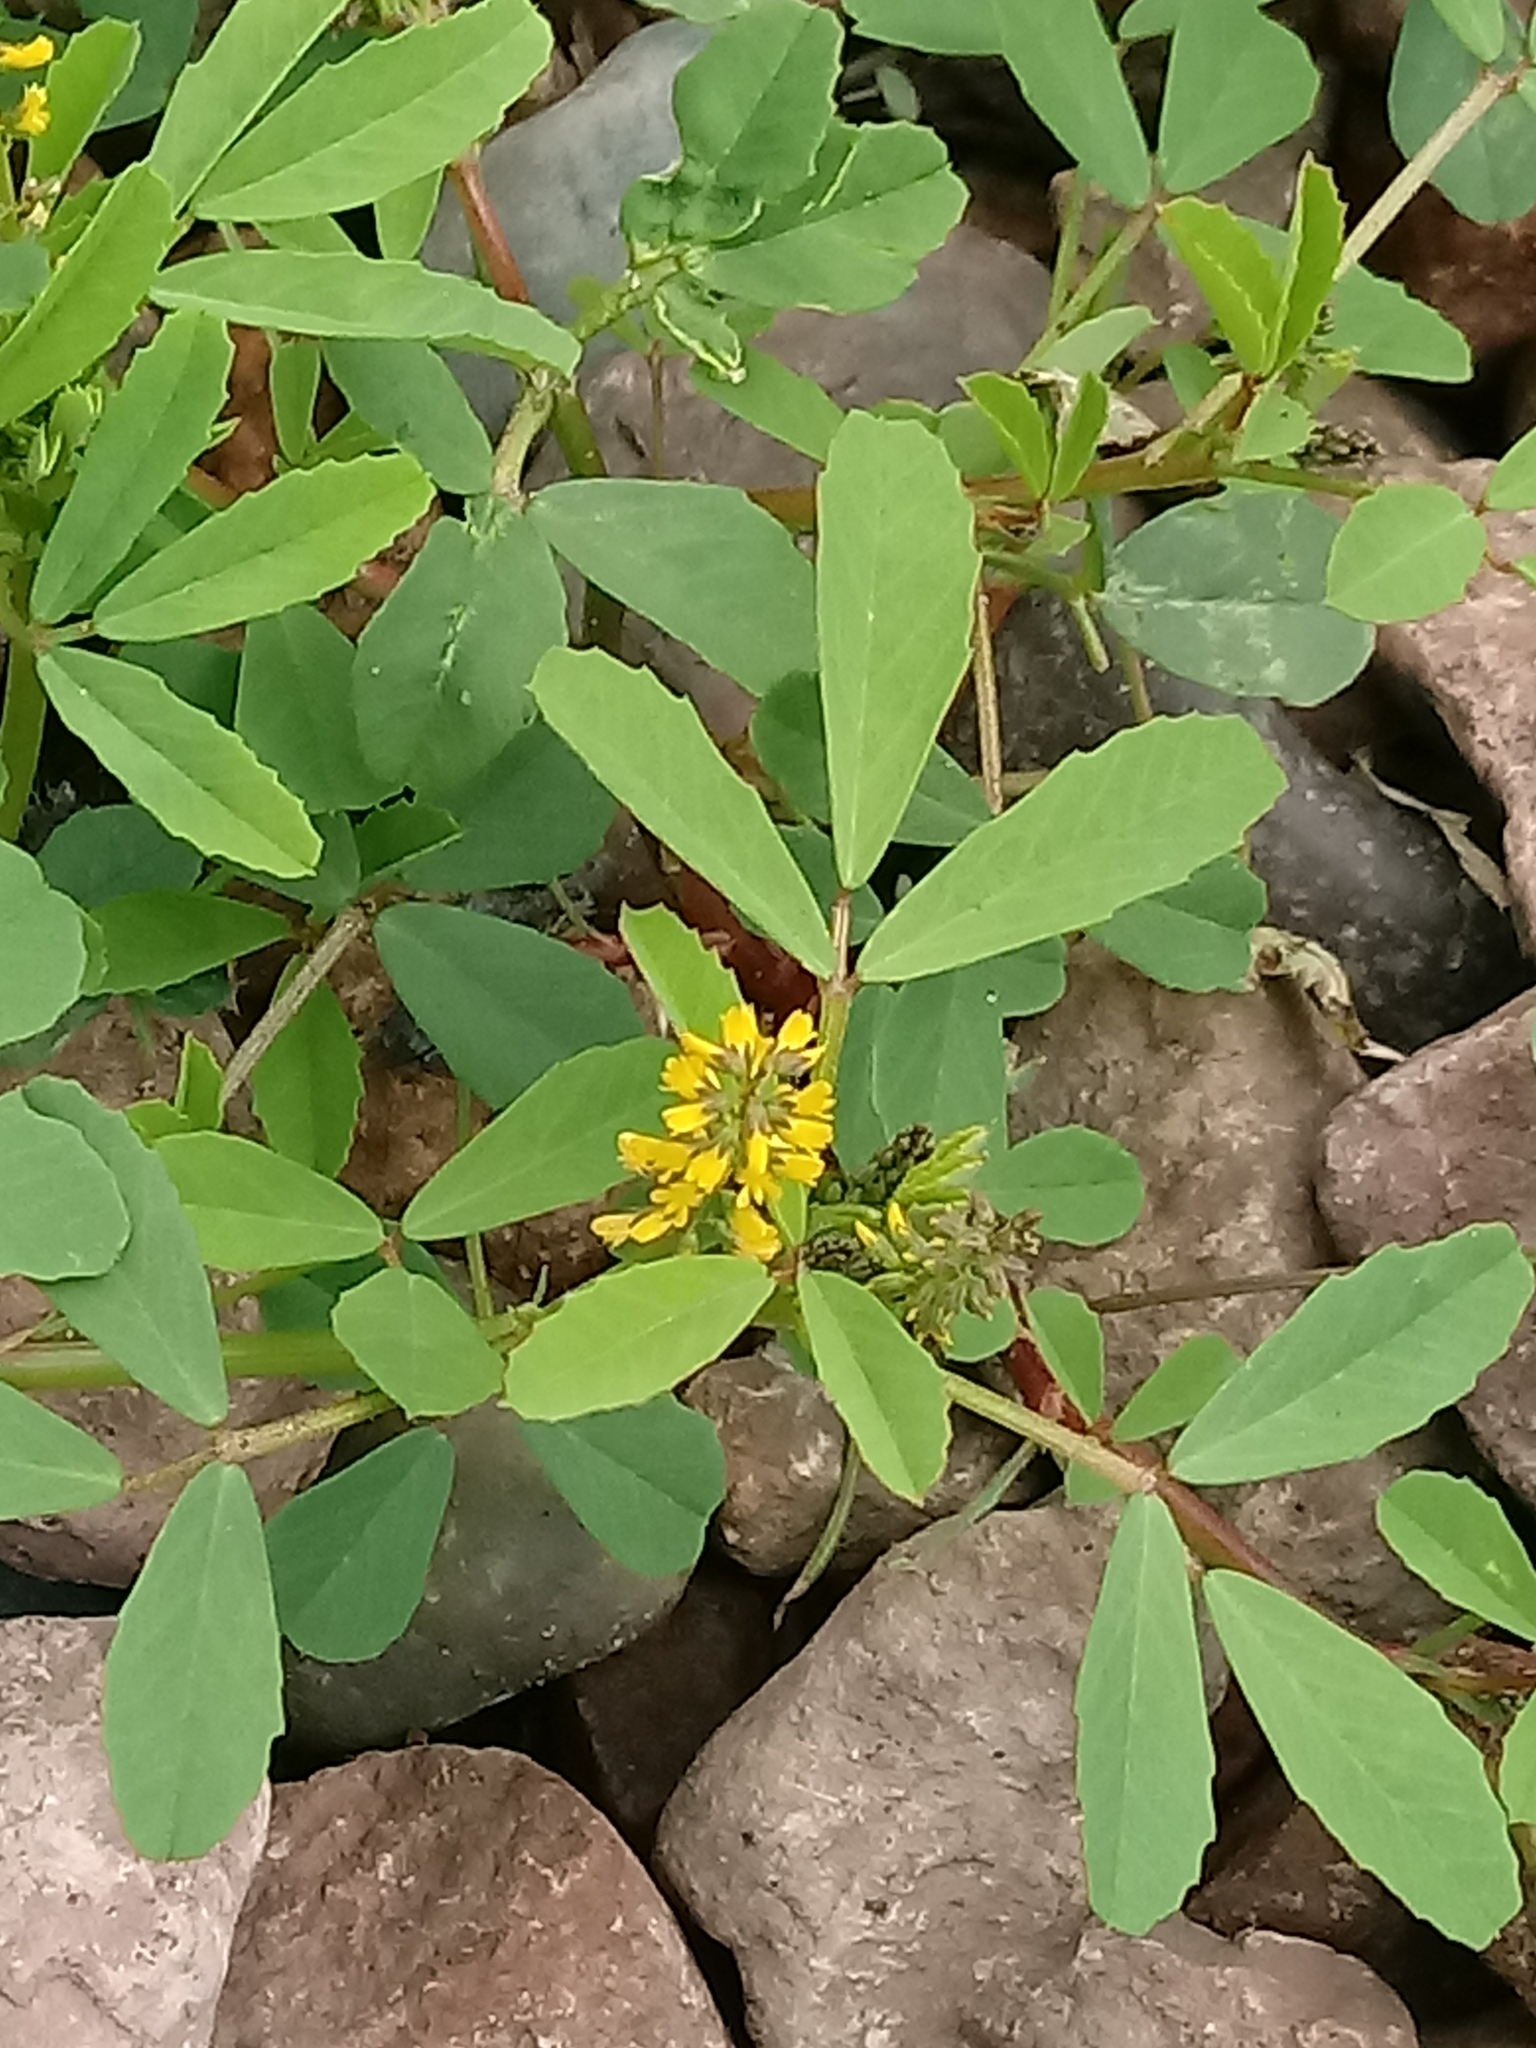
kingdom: Plantae
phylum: Tracheophyta
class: Magnoliopsida
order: Fabales
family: Fabaceae
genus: Melilotus
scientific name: Melilotus indicus
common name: Small melilot
